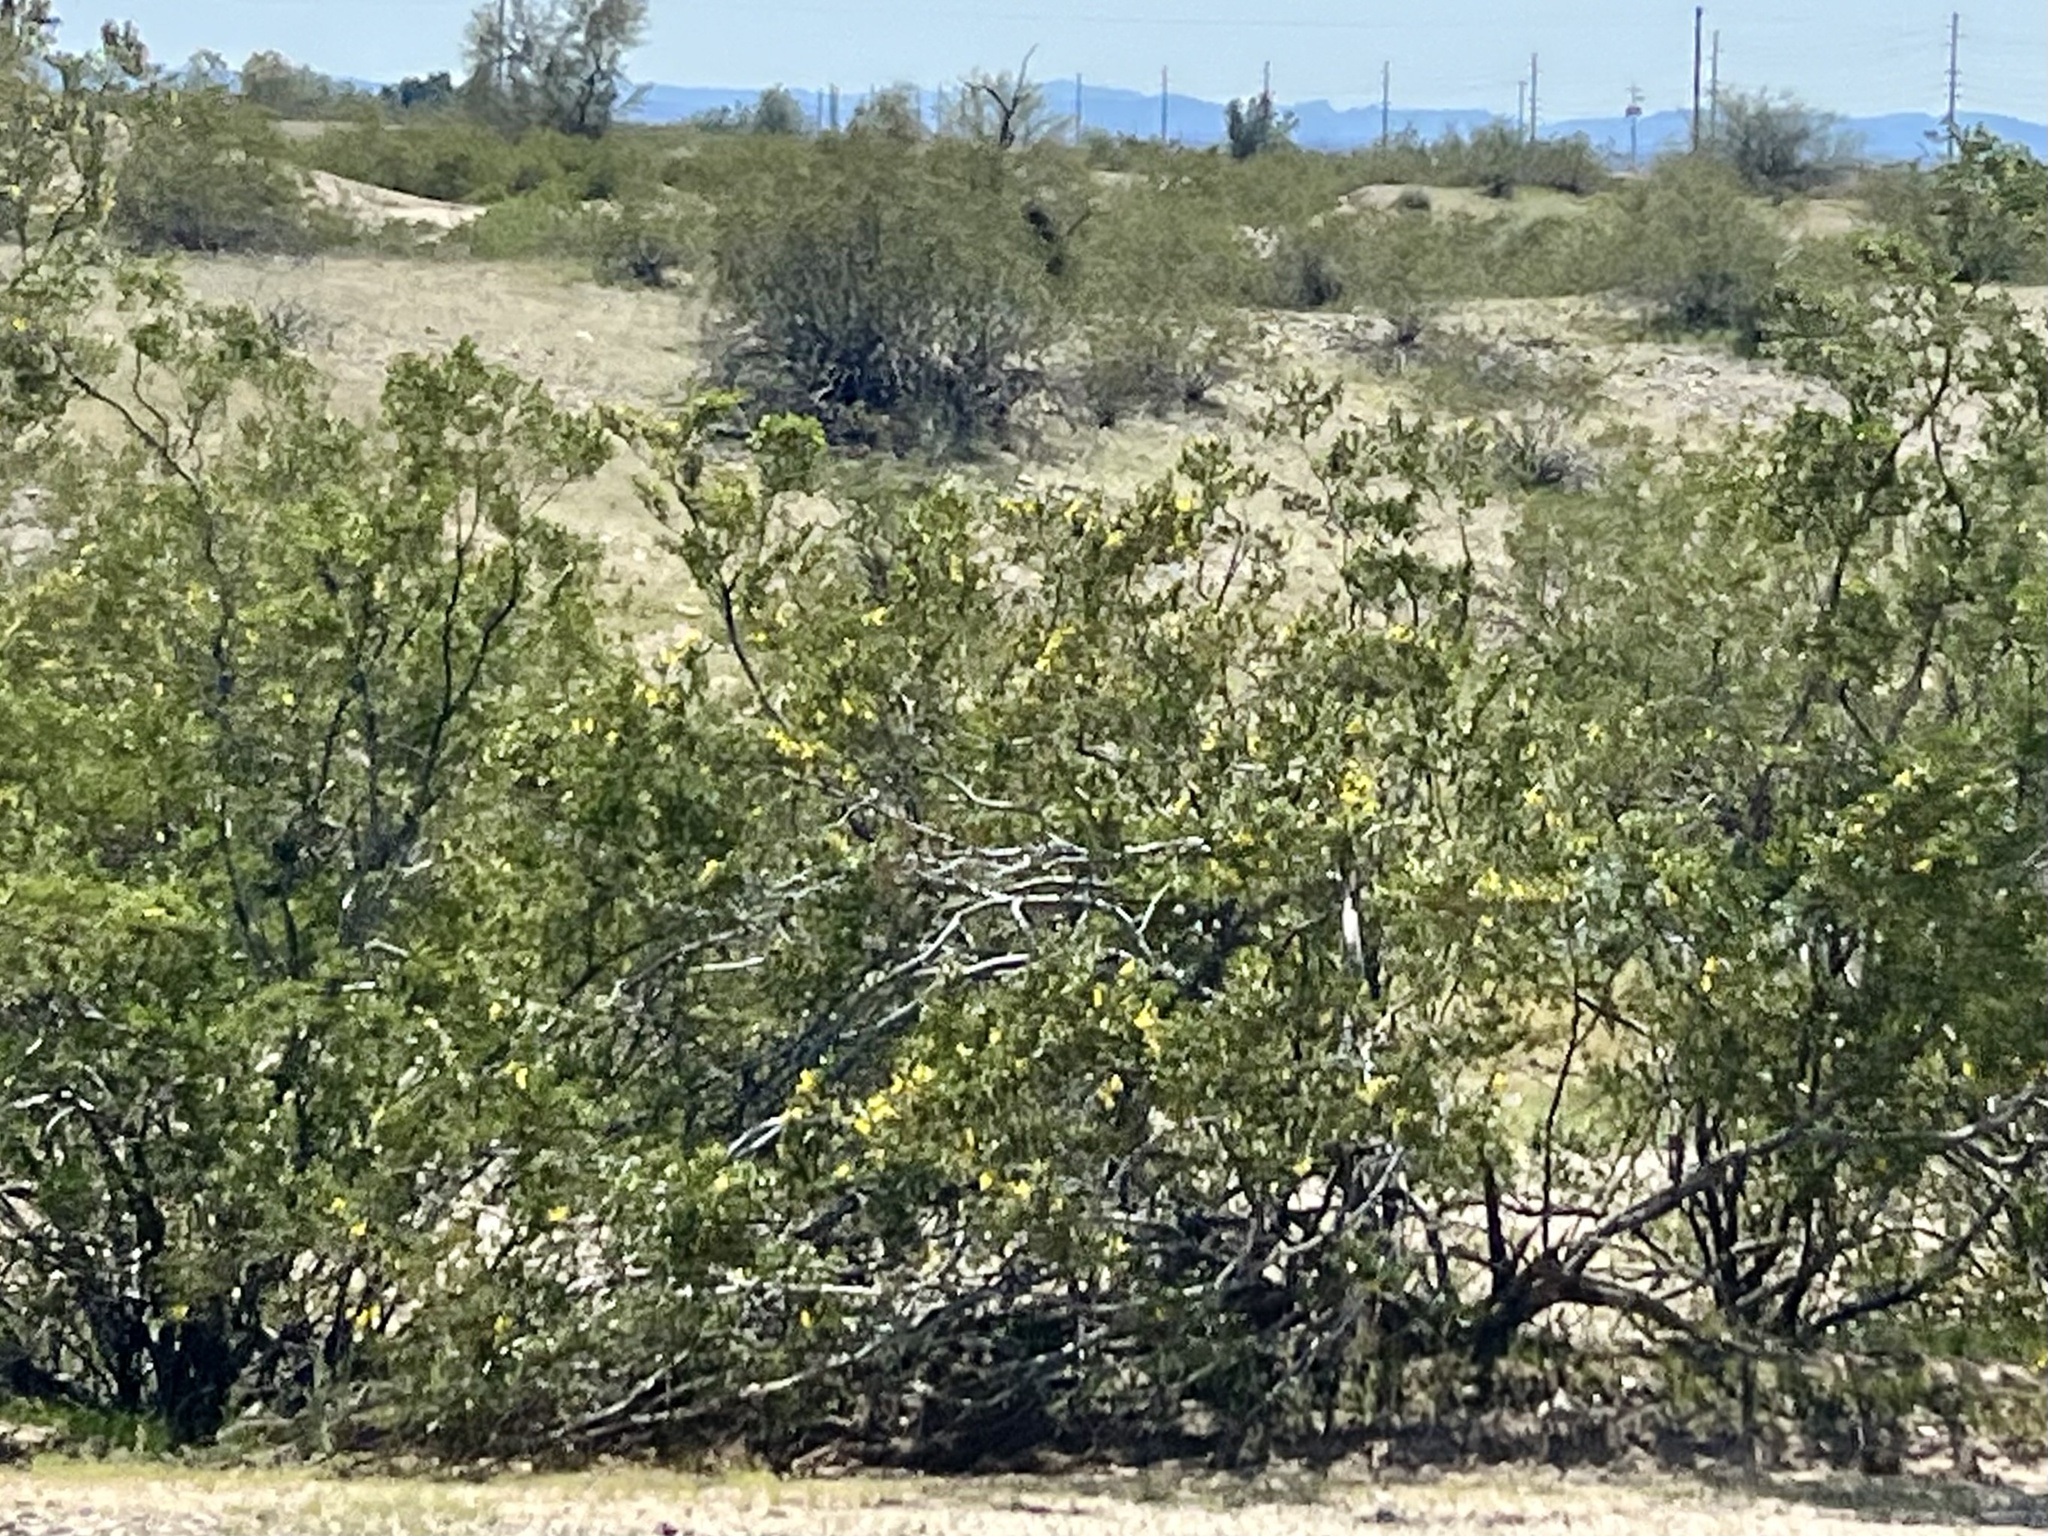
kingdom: Plantae
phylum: Tracheophyta
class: Magnoliopsida
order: Zygophyllales
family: Zygophyllaceae
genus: Larrea
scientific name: Larrea tridentata
